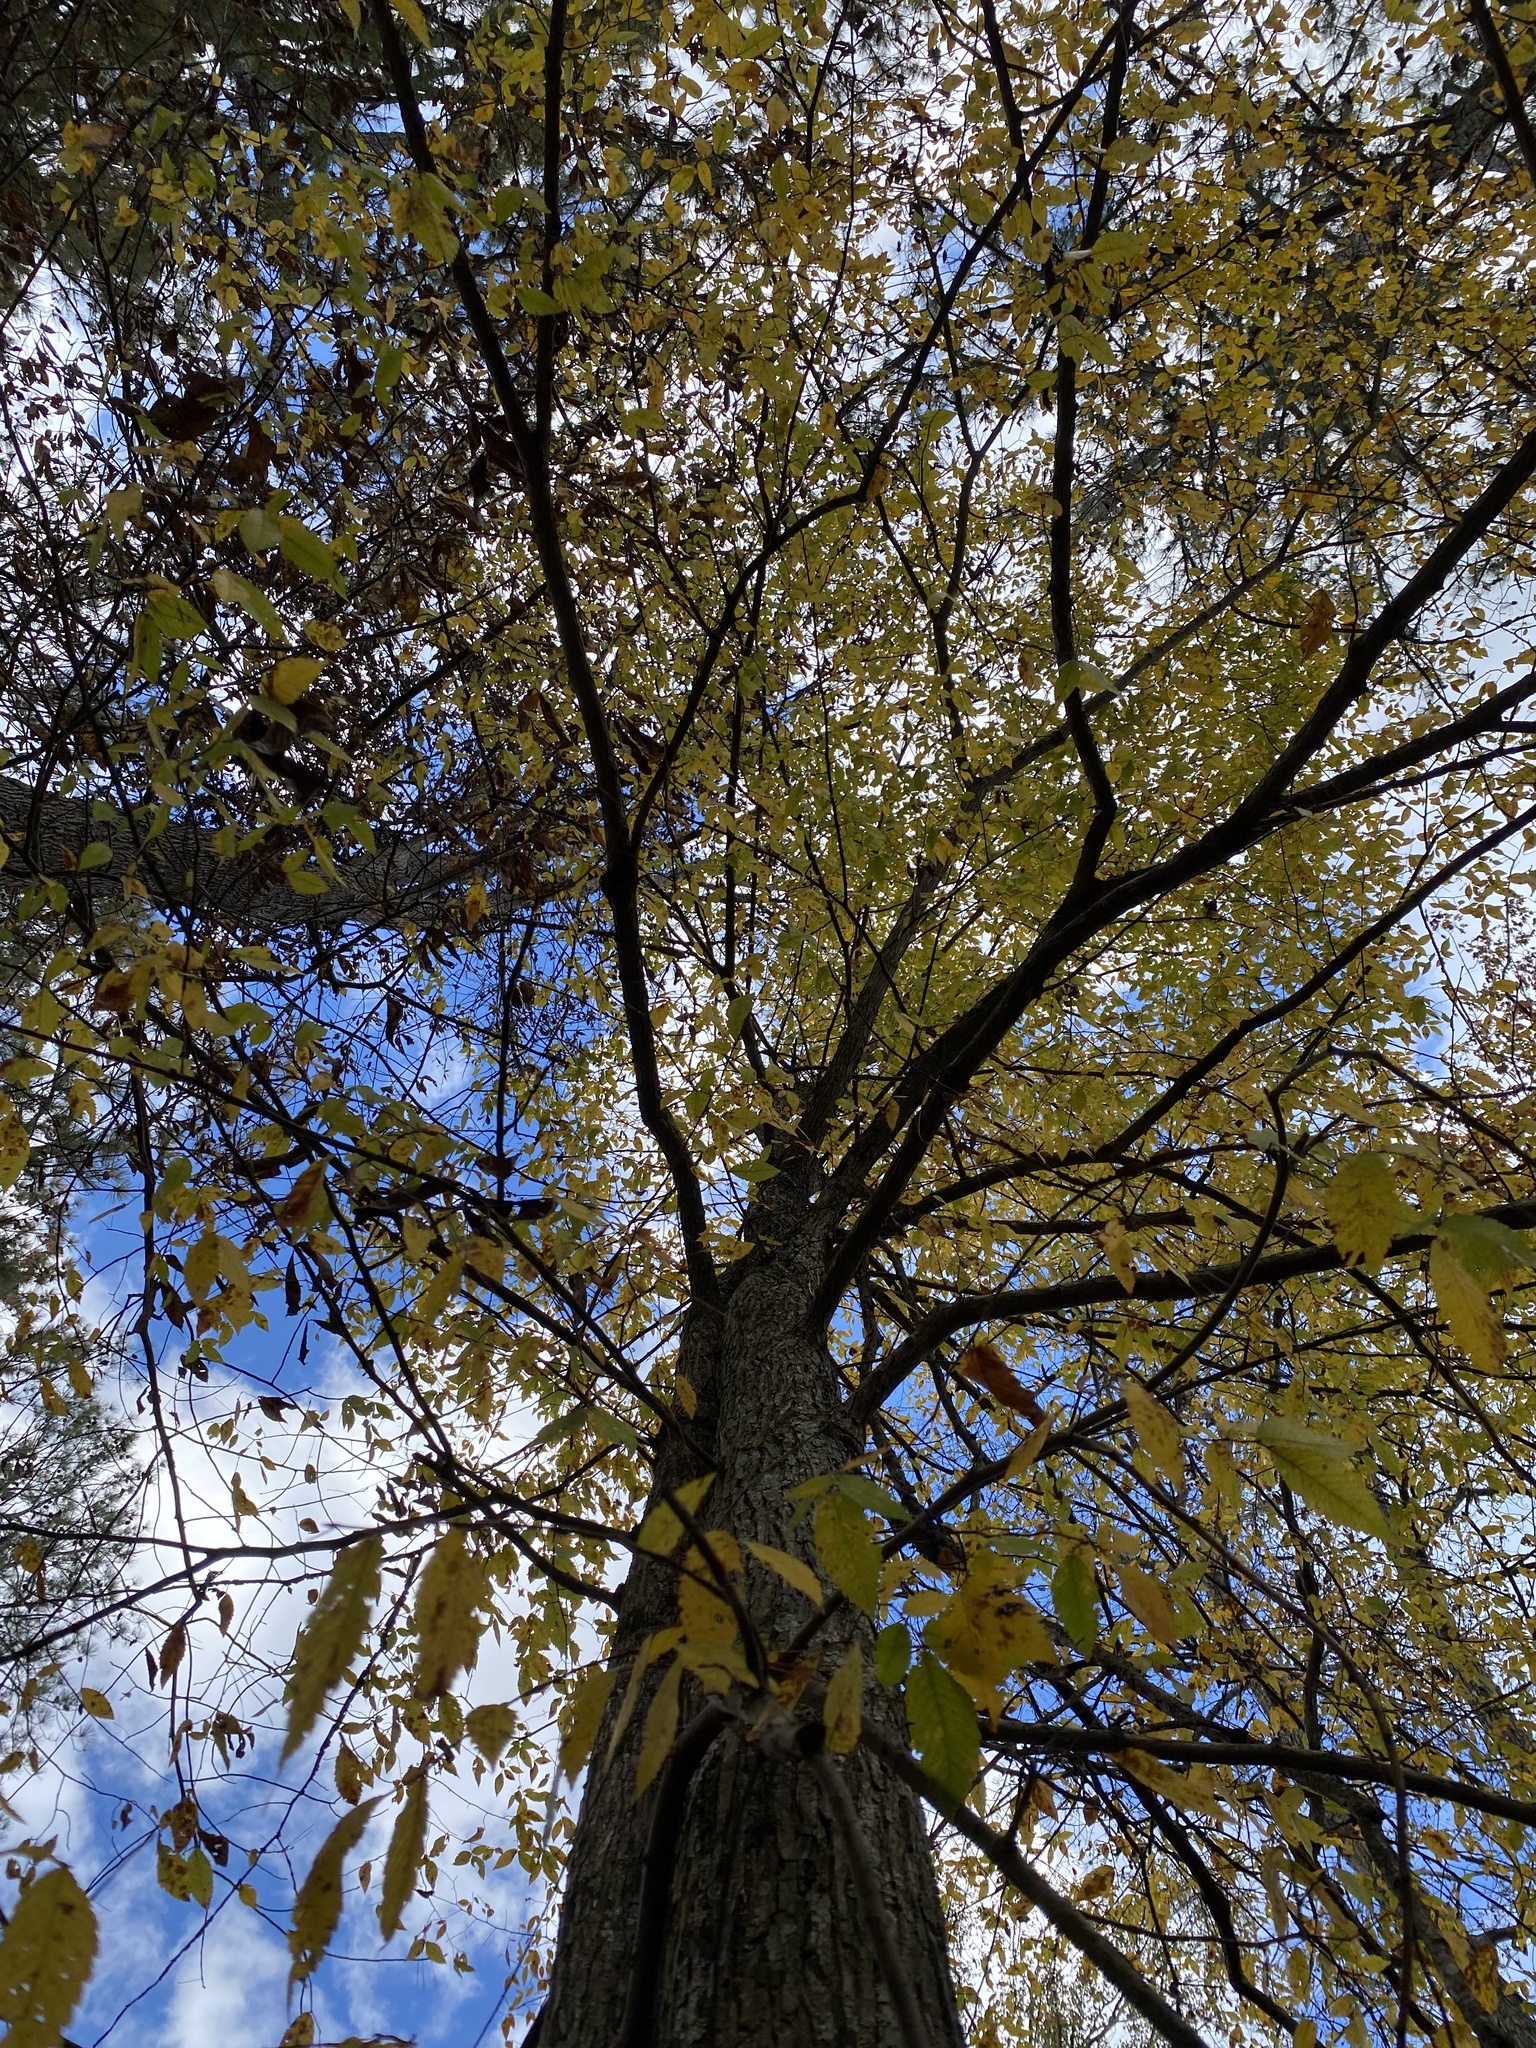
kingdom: Plantae
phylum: Tracheophyta
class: Magnoliopsida
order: Rosales
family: Ulmaceae
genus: Ulmus
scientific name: Ulmus alata
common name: Winged elm
